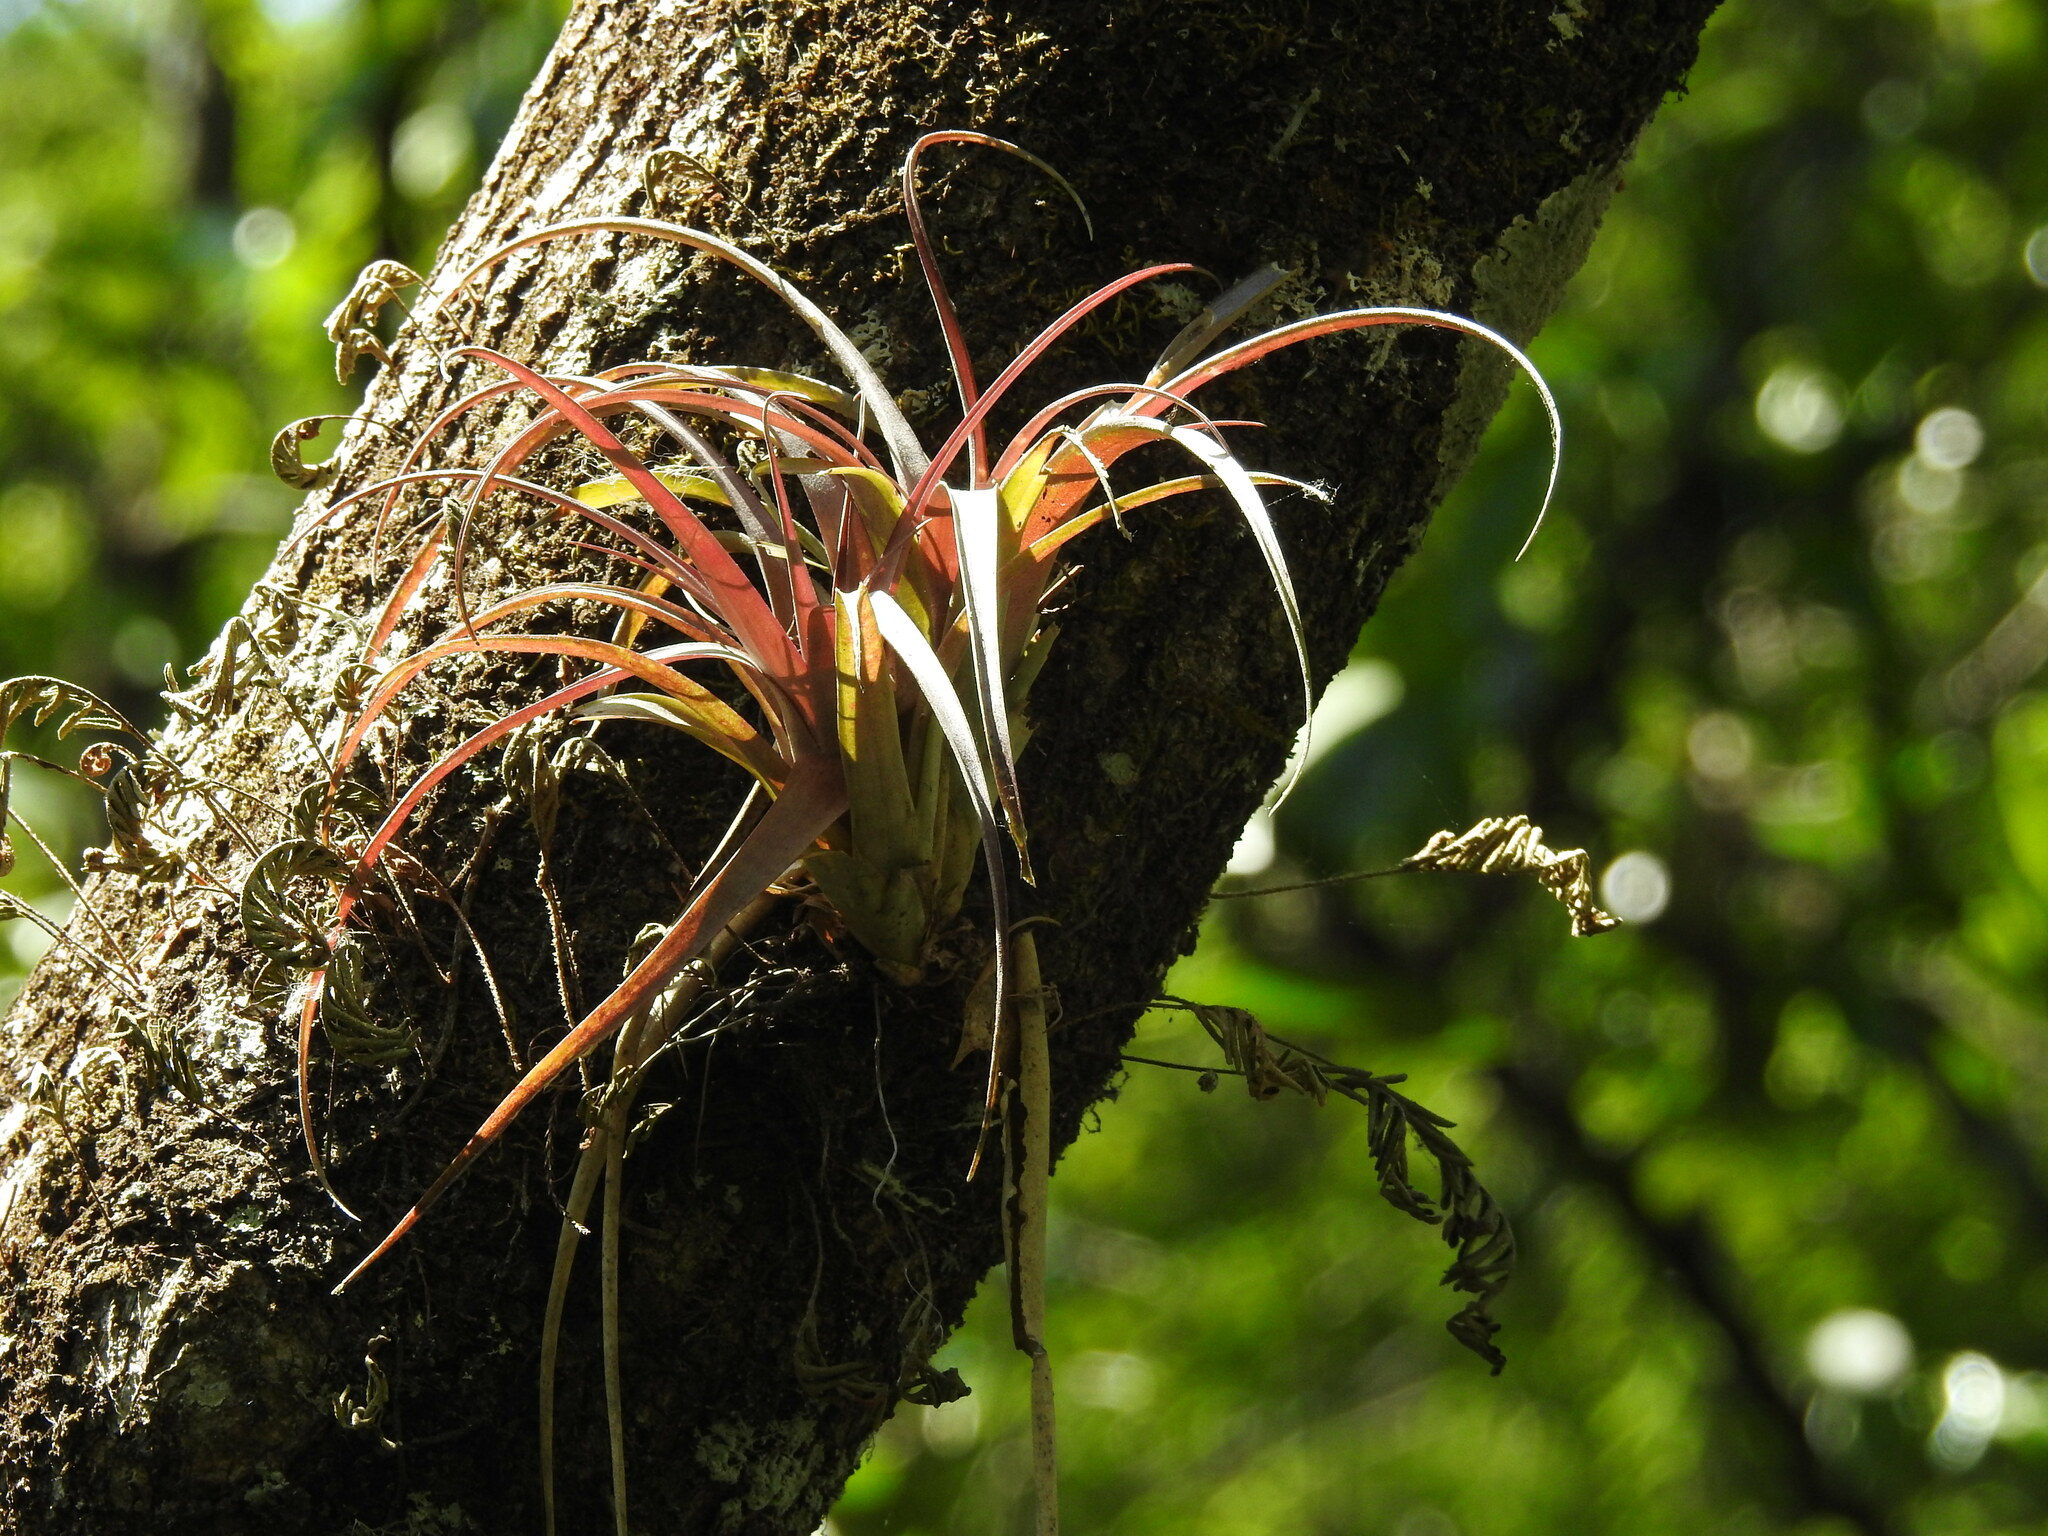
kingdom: Plantae
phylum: Tracheophyta
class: Liliopsida
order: Poales
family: Bromeliaceae
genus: Tillandsia
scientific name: Tillandsia variabilis
